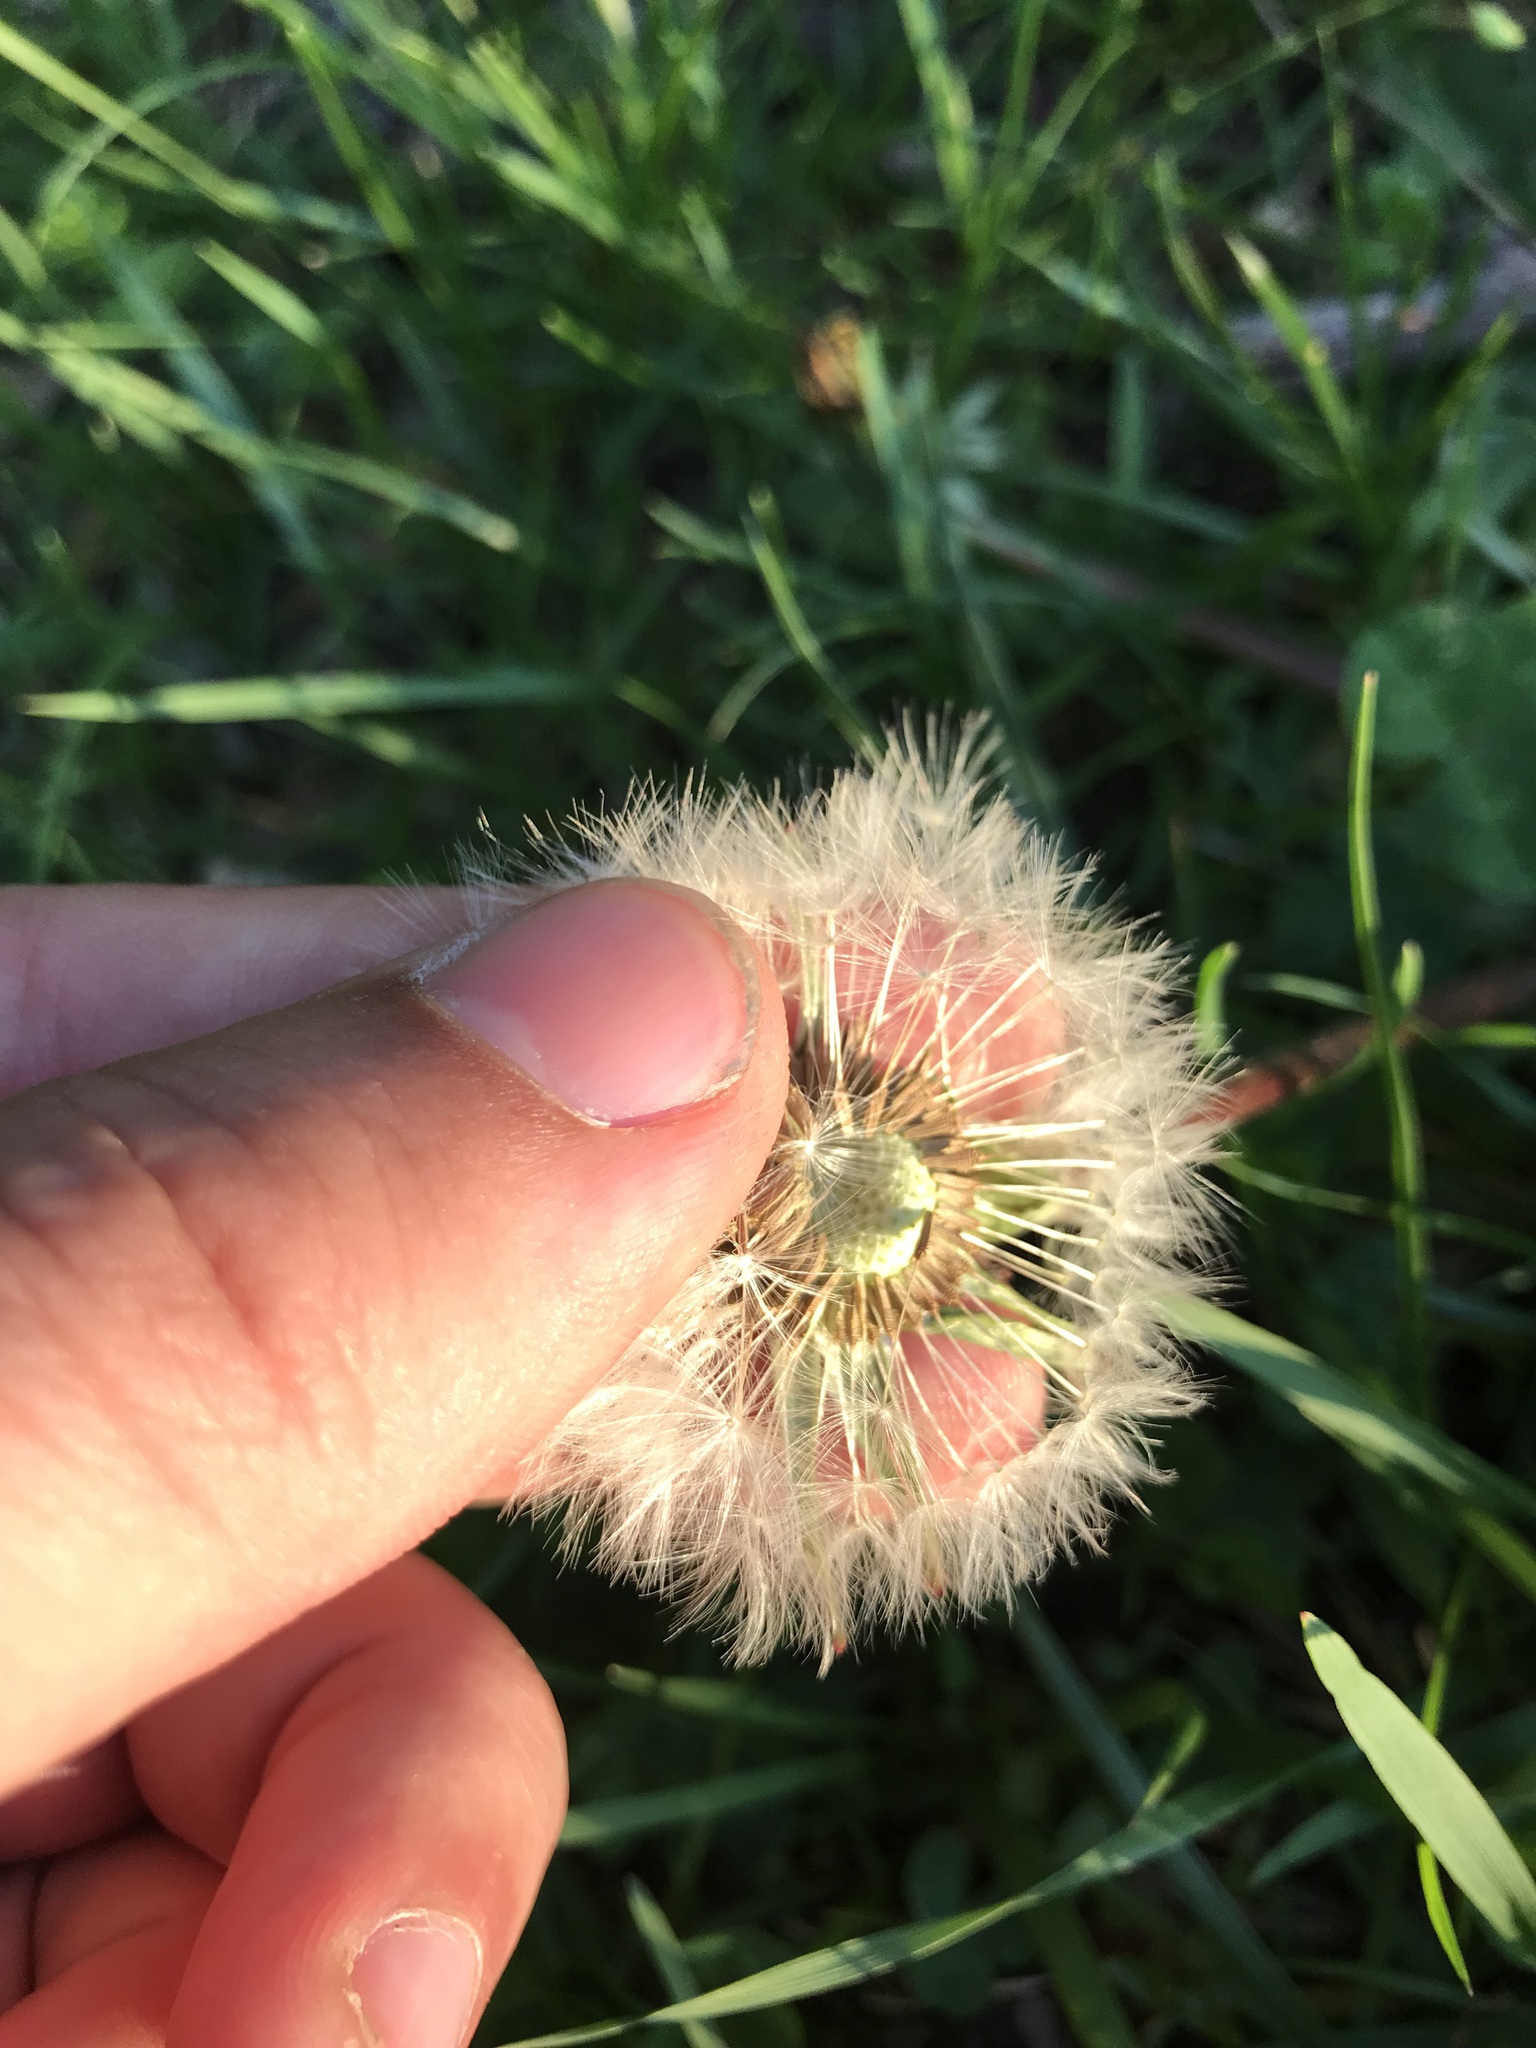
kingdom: Plantae
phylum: Tracheophyta
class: Magnoliopsida
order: Asterales
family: Asteraceae
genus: Taraxacum
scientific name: Taraxacum officinale
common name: Common dandelion
